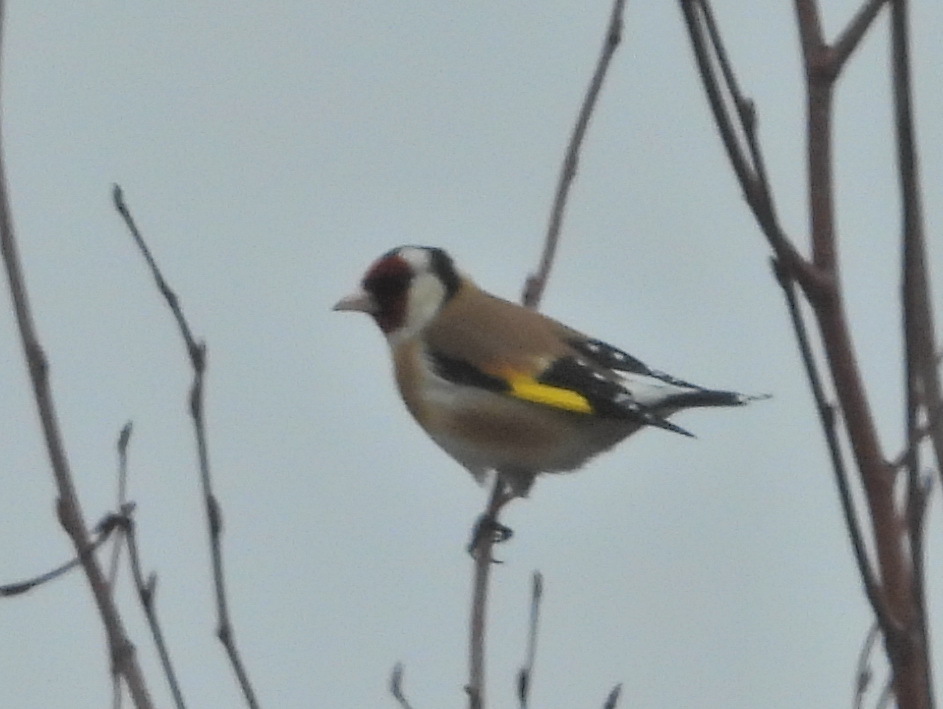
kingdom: Animalia
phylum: Chordata
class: Aves
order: Passeriformes
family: Fringillidae
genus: Carduelis
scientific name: Carduelis carduelis
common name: European goldfinch
